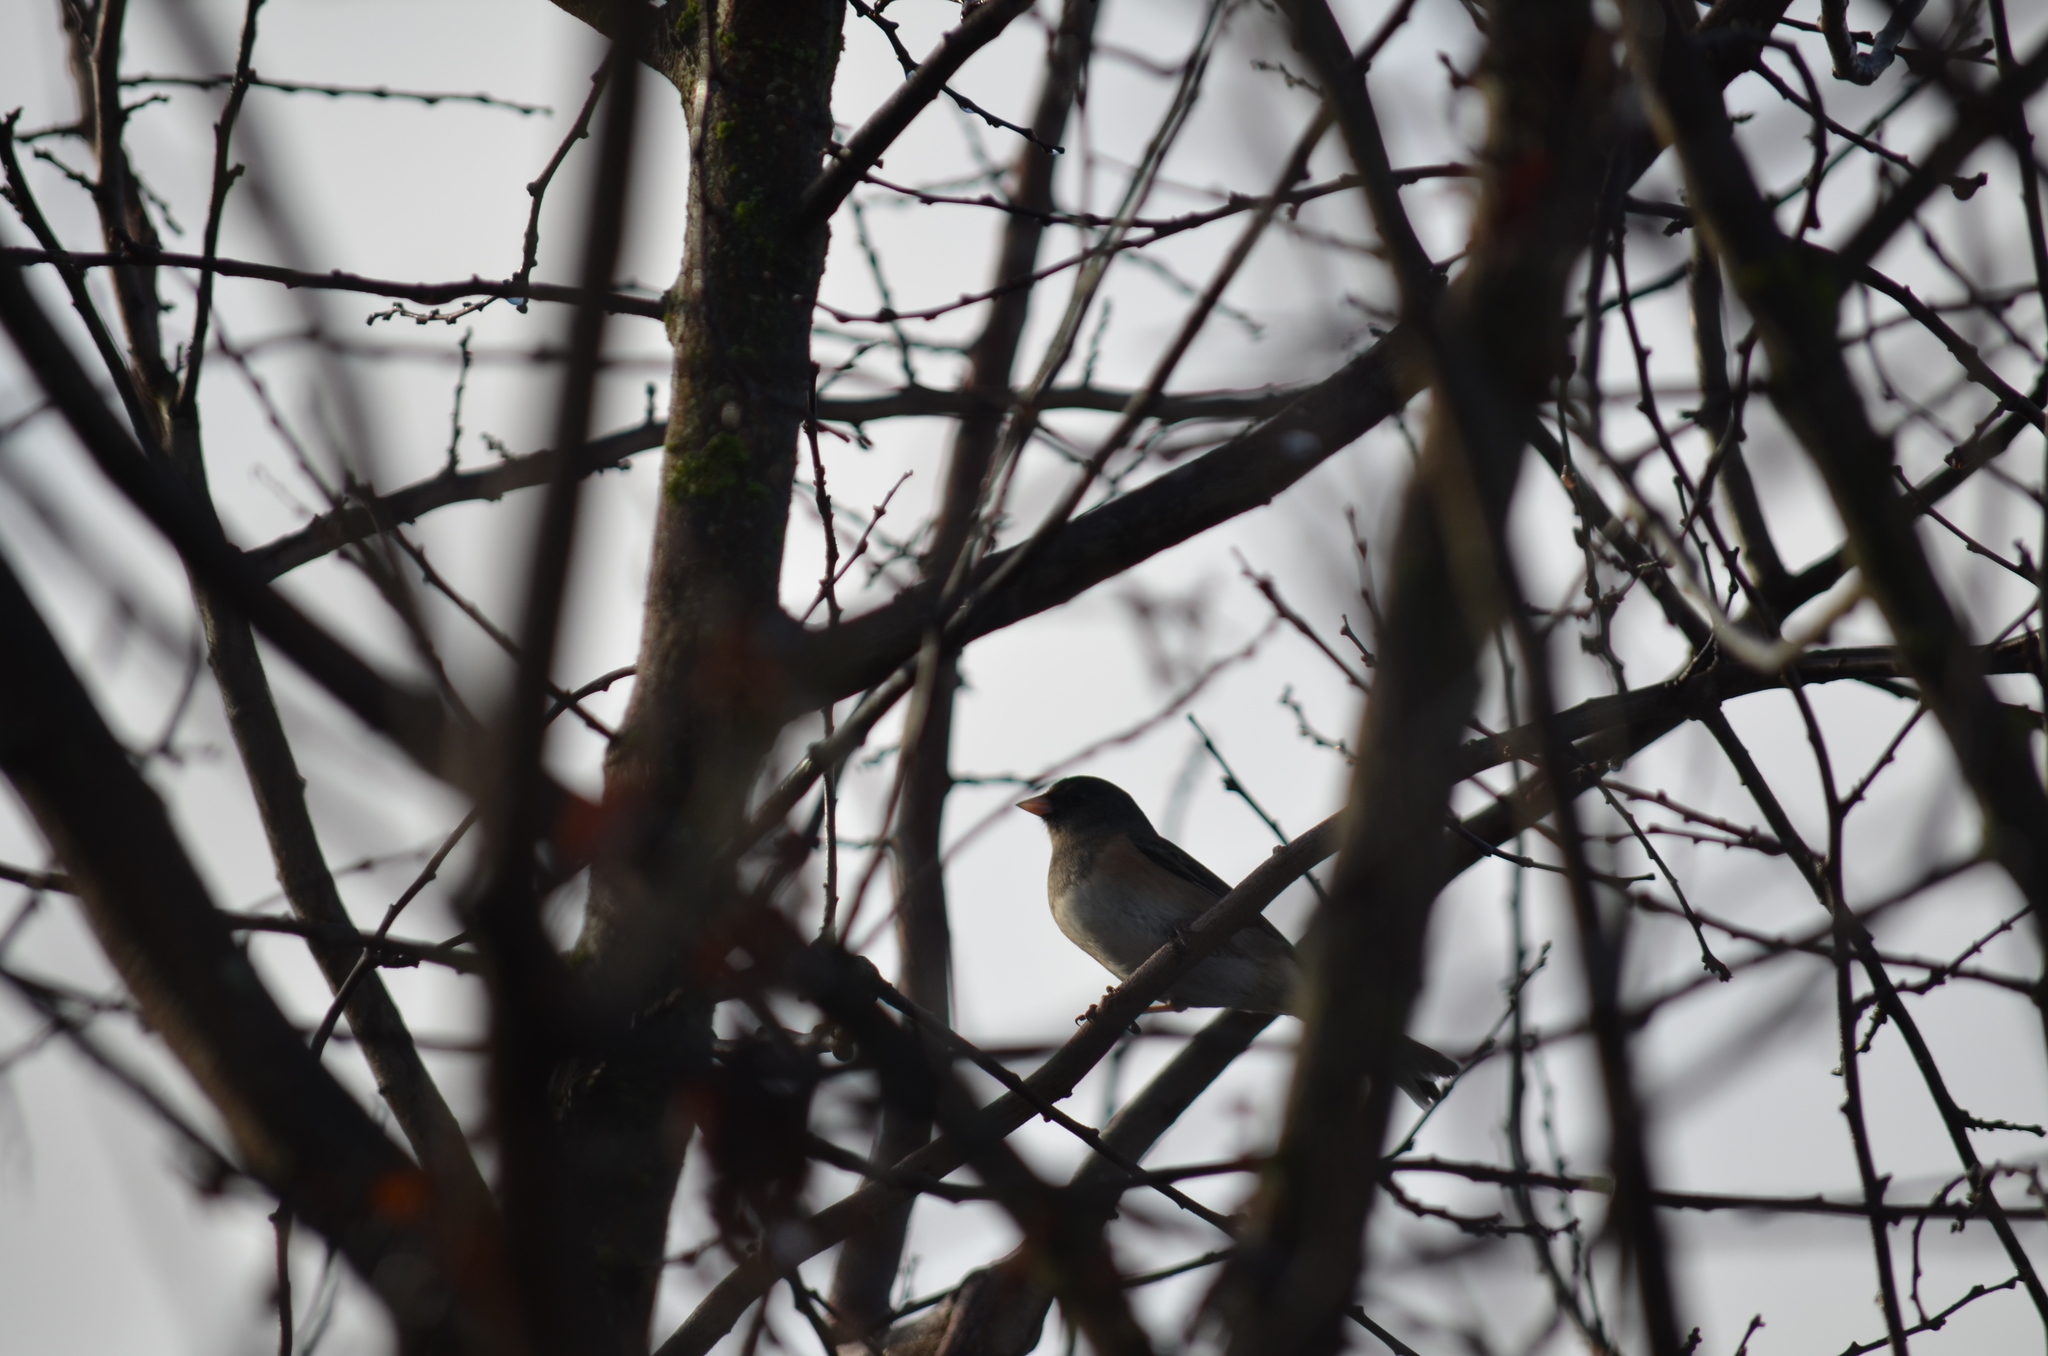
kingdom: Animalia
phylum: Chordata
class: Aves
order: Passeriformes
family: Passerellidae
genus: Junco
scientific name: Junco hyemalis
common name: Dark-eyed junco
